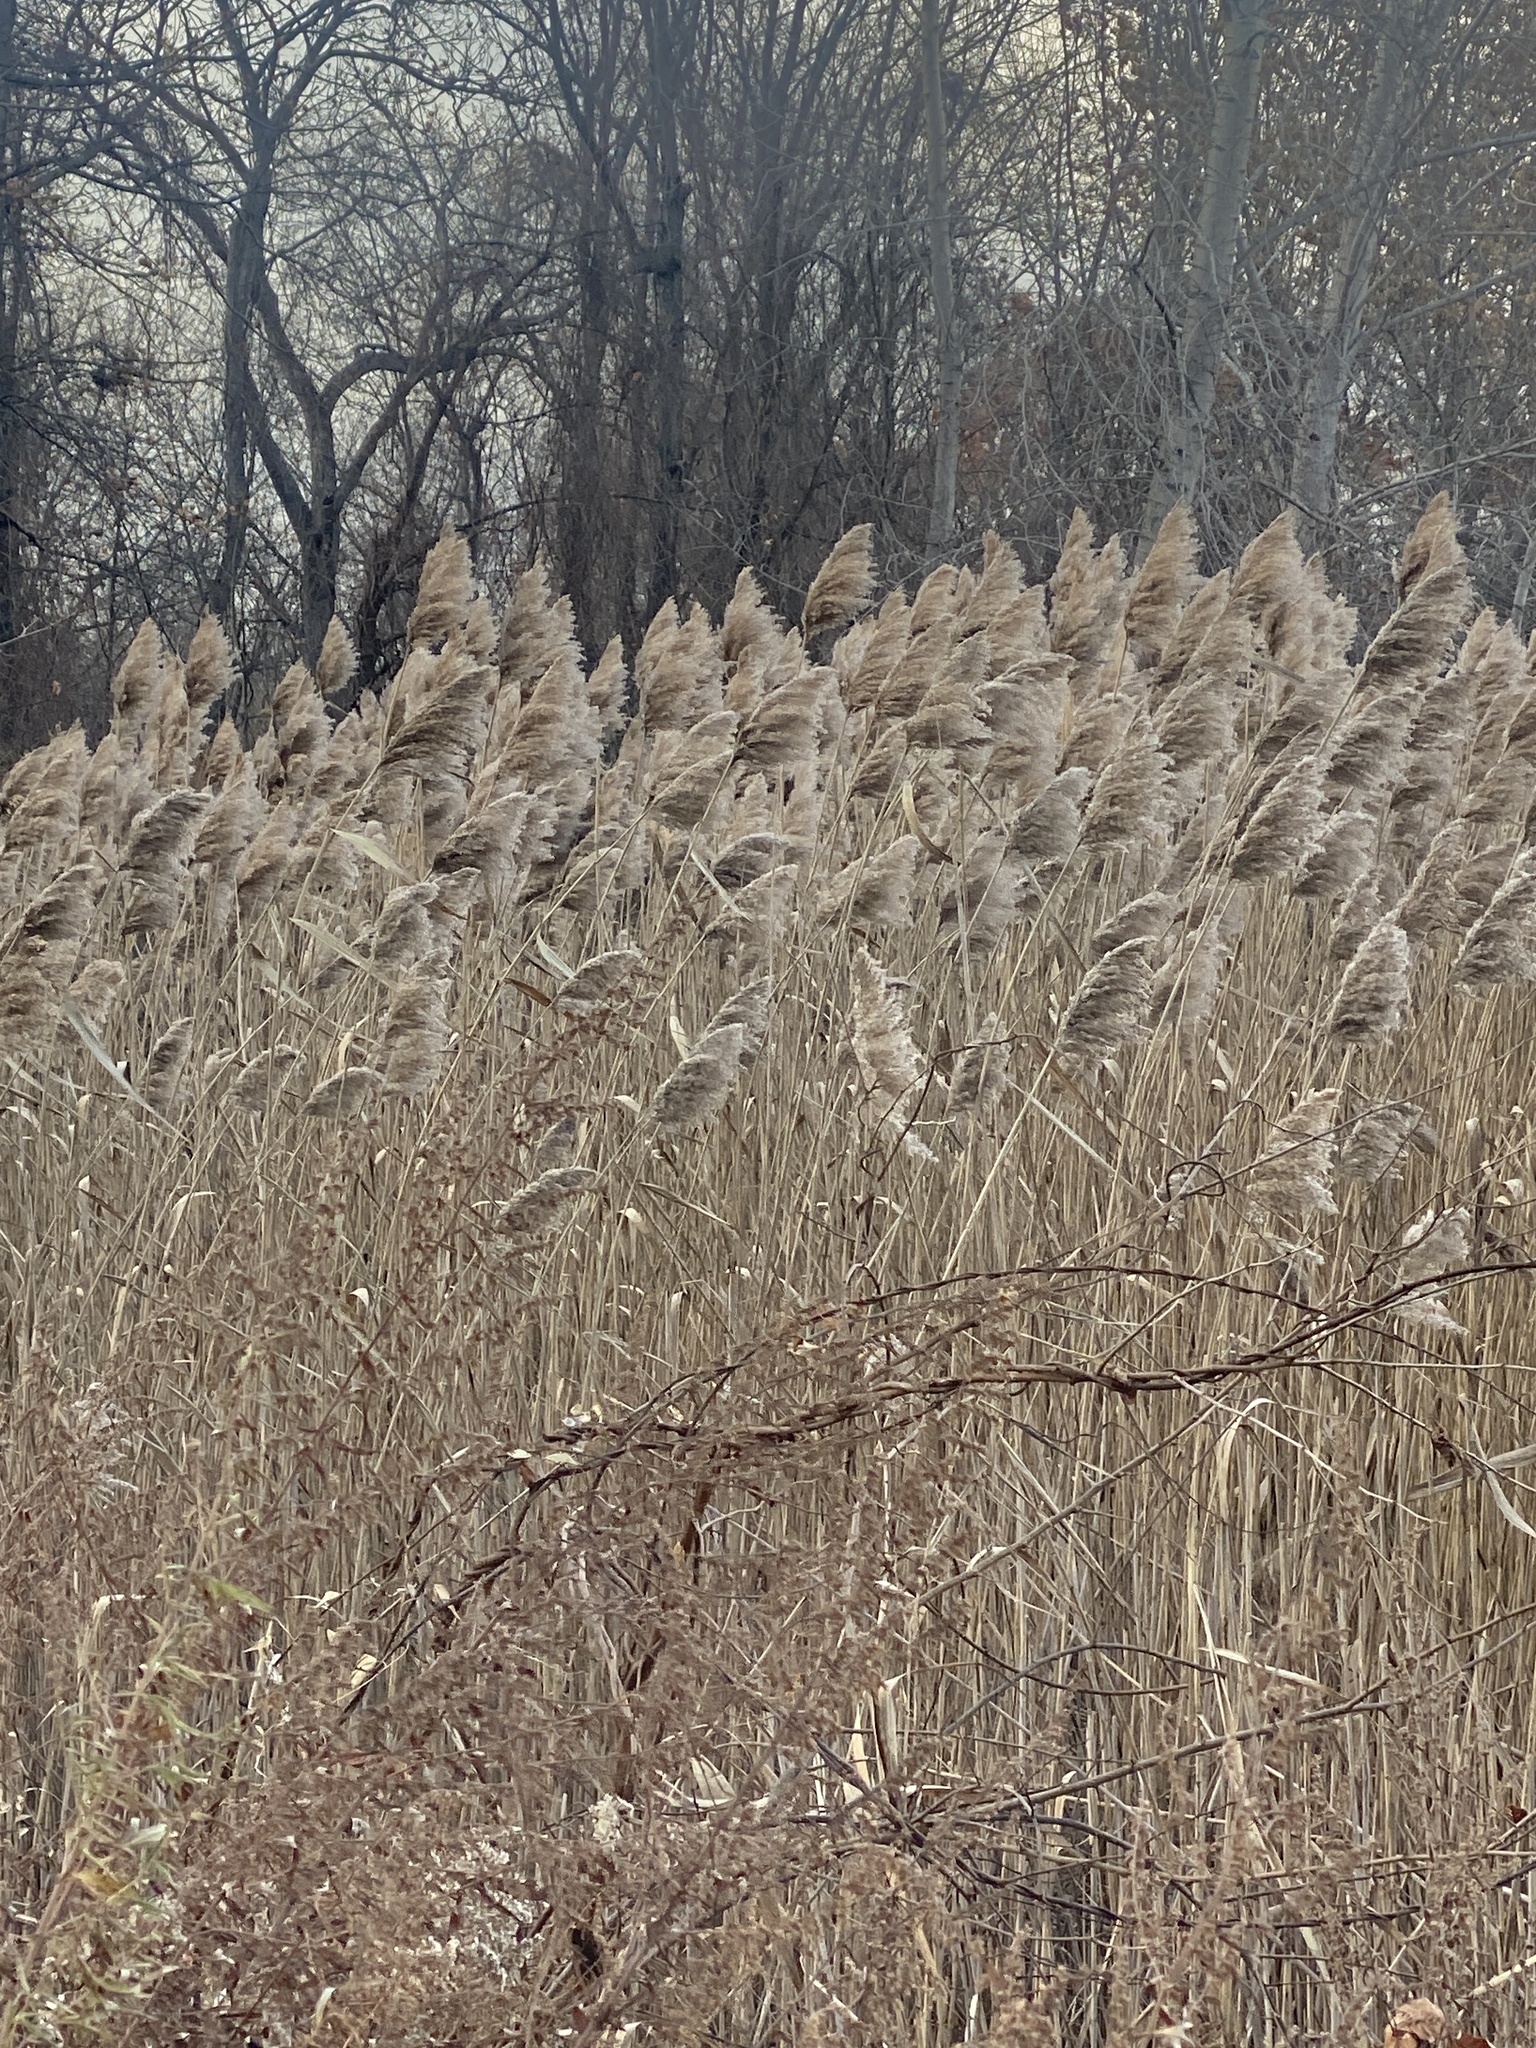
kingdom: Plantae
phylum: Tracheophyta
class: Liliopsida
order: Poales
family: Poaceae
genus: Phragmites
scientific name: Phragmites australis
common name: Common reed
